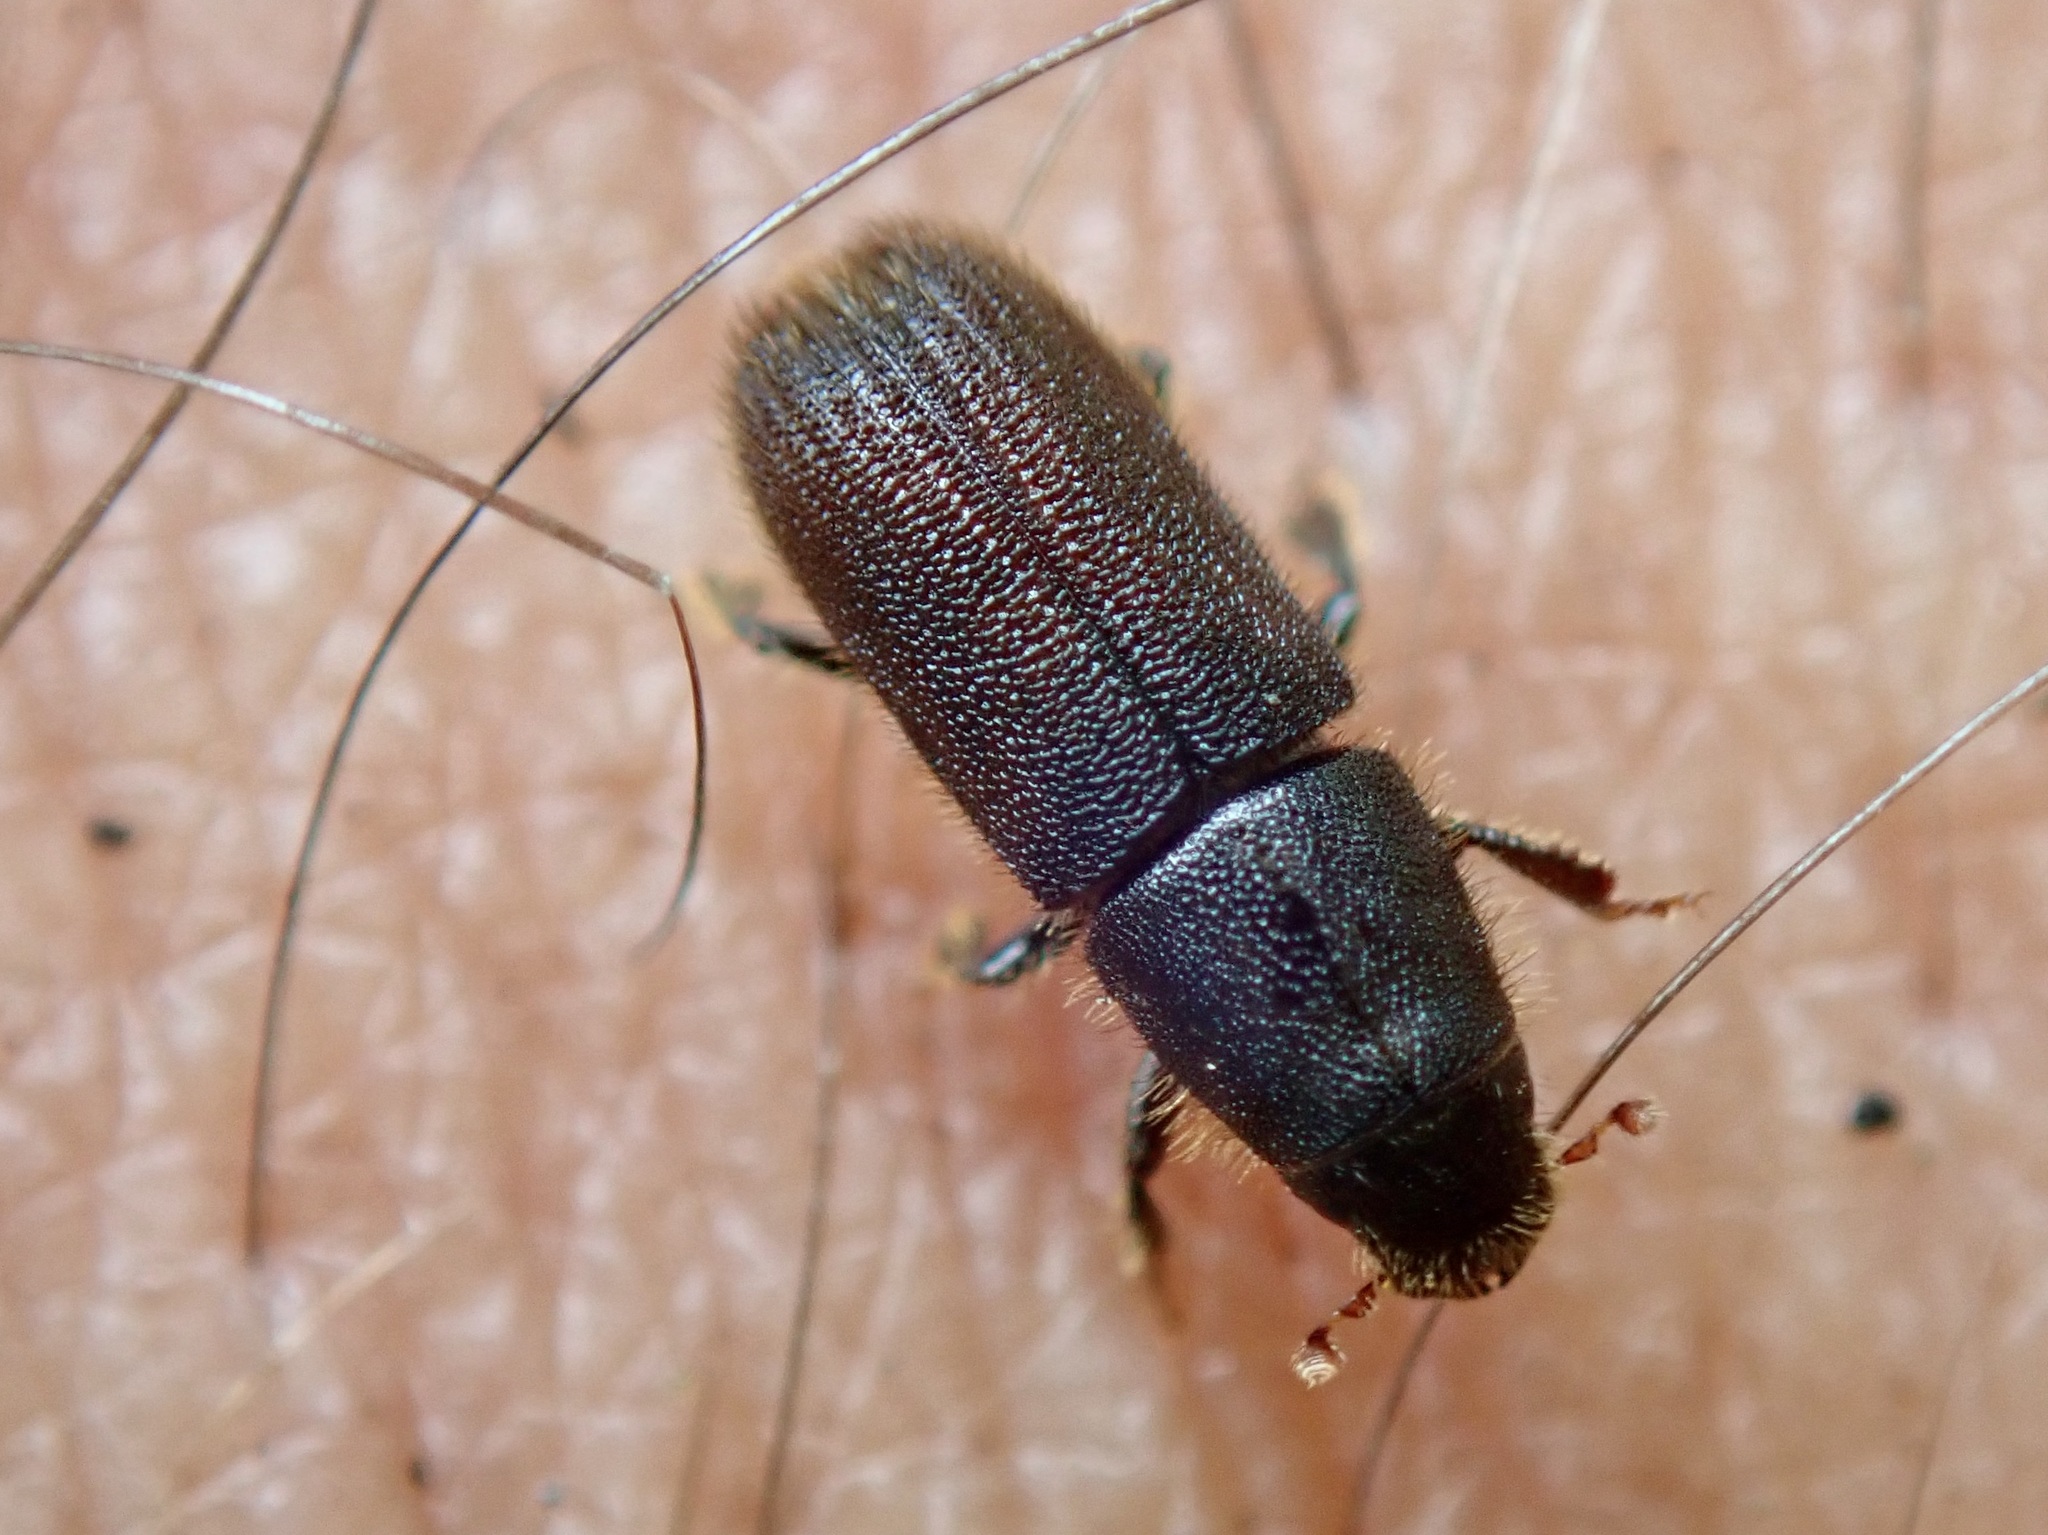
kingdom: Animalia
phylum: Arthropoda
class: Insecta
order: Coleoptera
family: Curculionidae
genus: Hylurgus
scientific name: Hylurgus ligniperda
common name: Goldenhaired bark beetle
